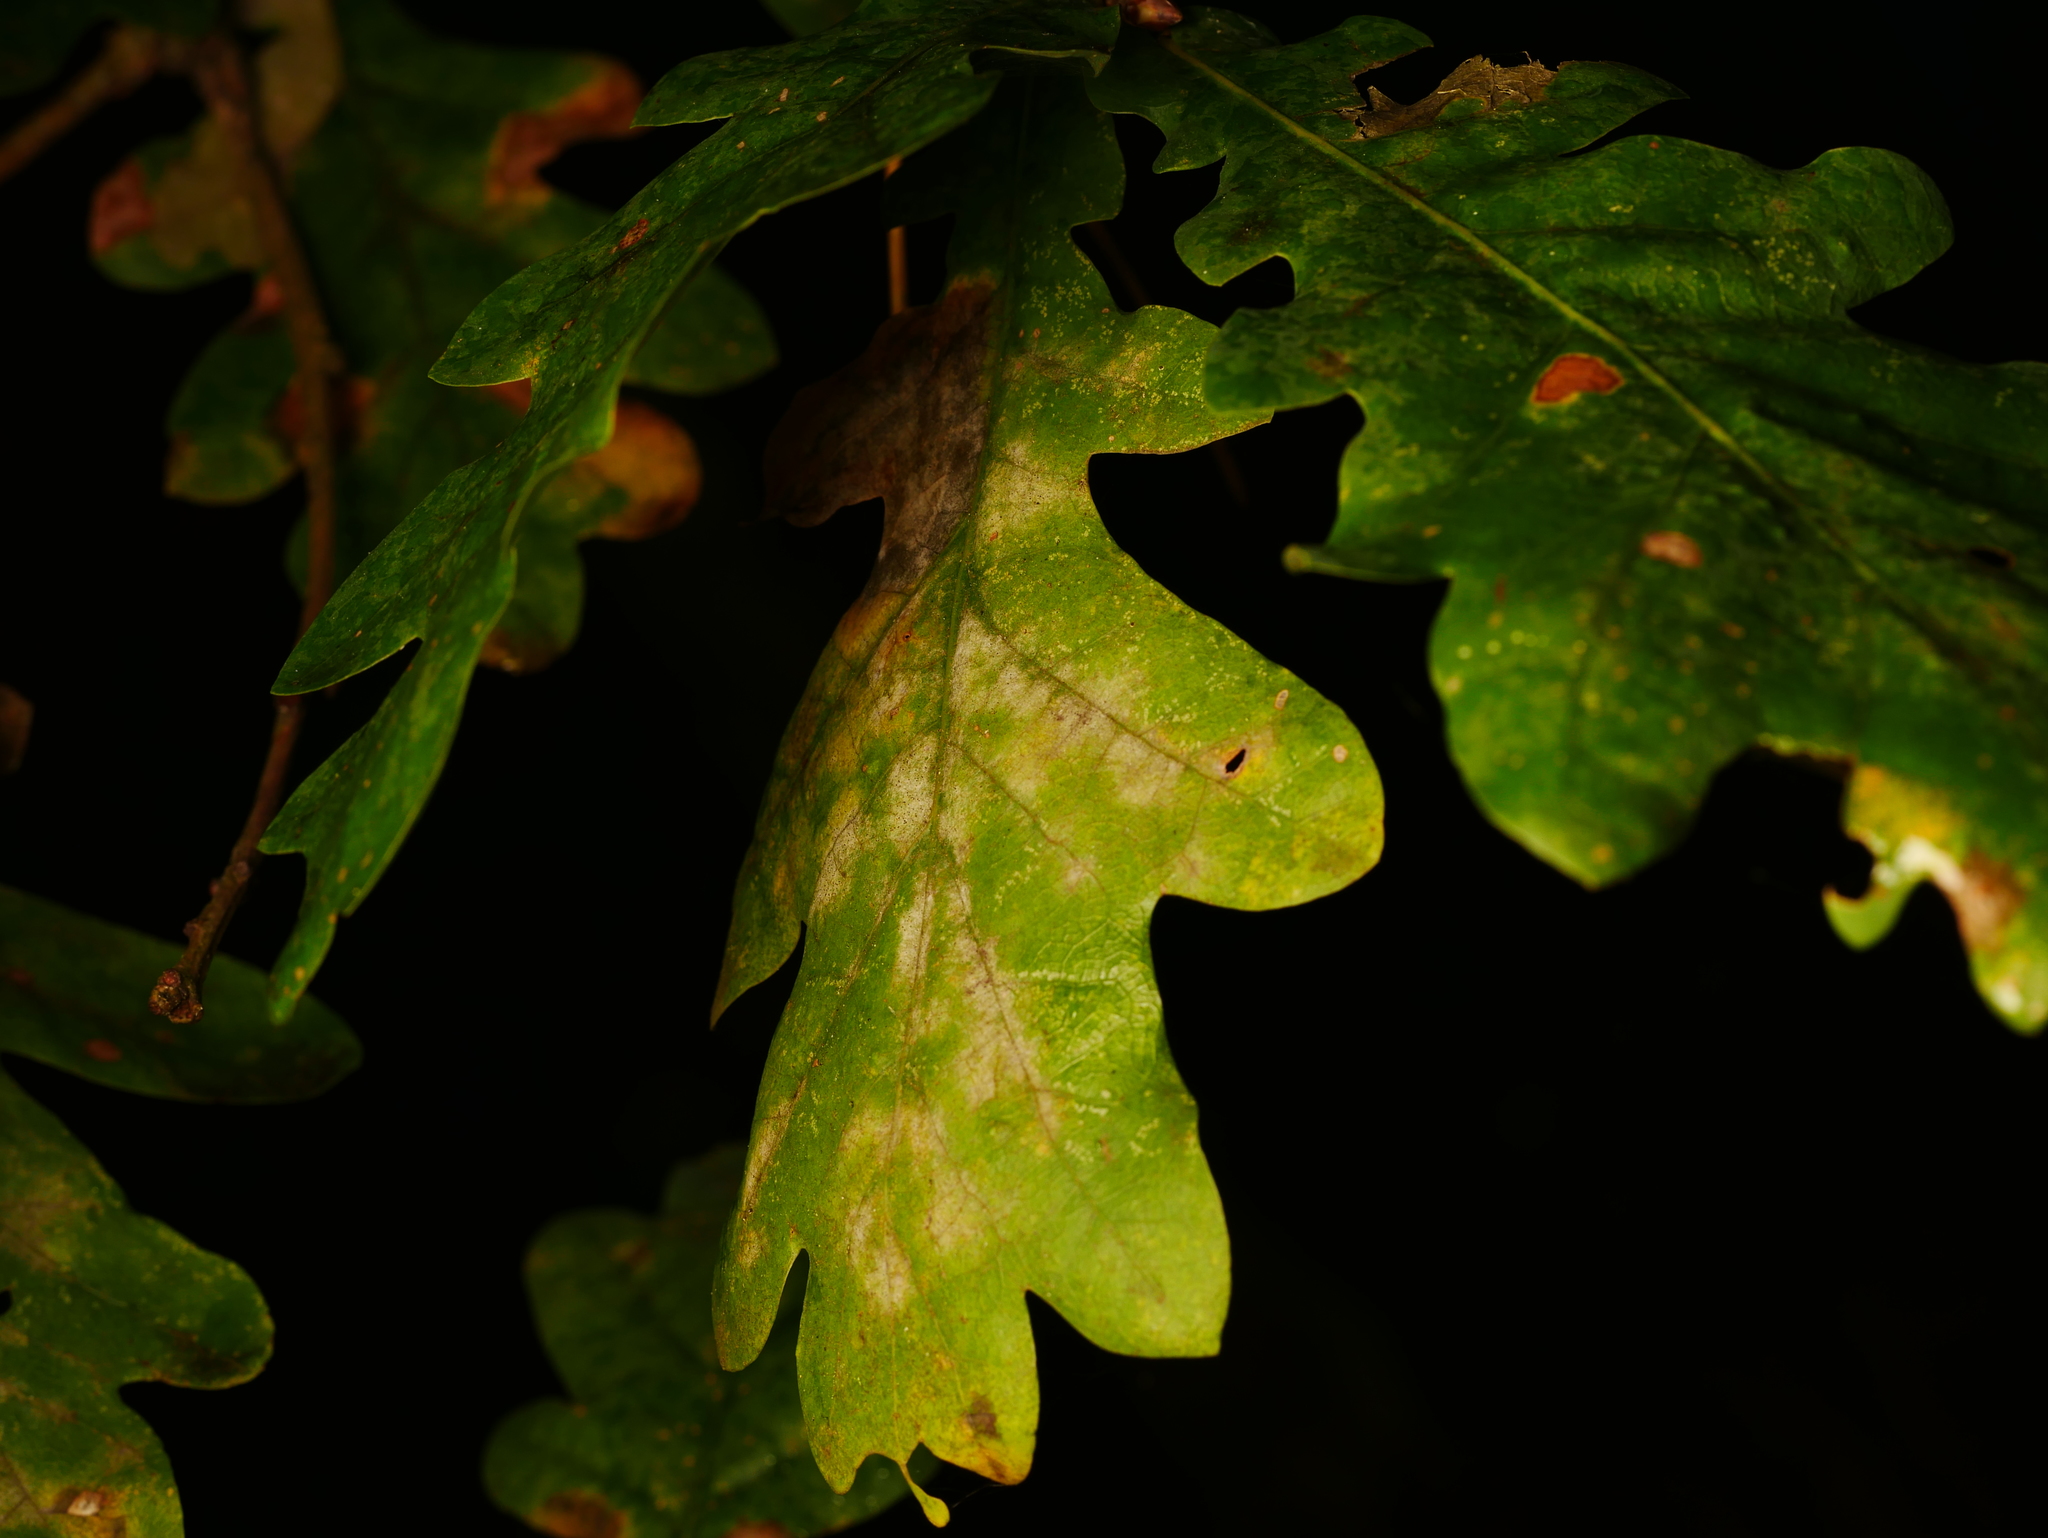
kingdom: Fungi
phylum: Ascomycota
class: Leotiomycetes
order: Helotiales
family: Erysiphaceae
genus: Erysiphe
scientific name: Erysiphe
